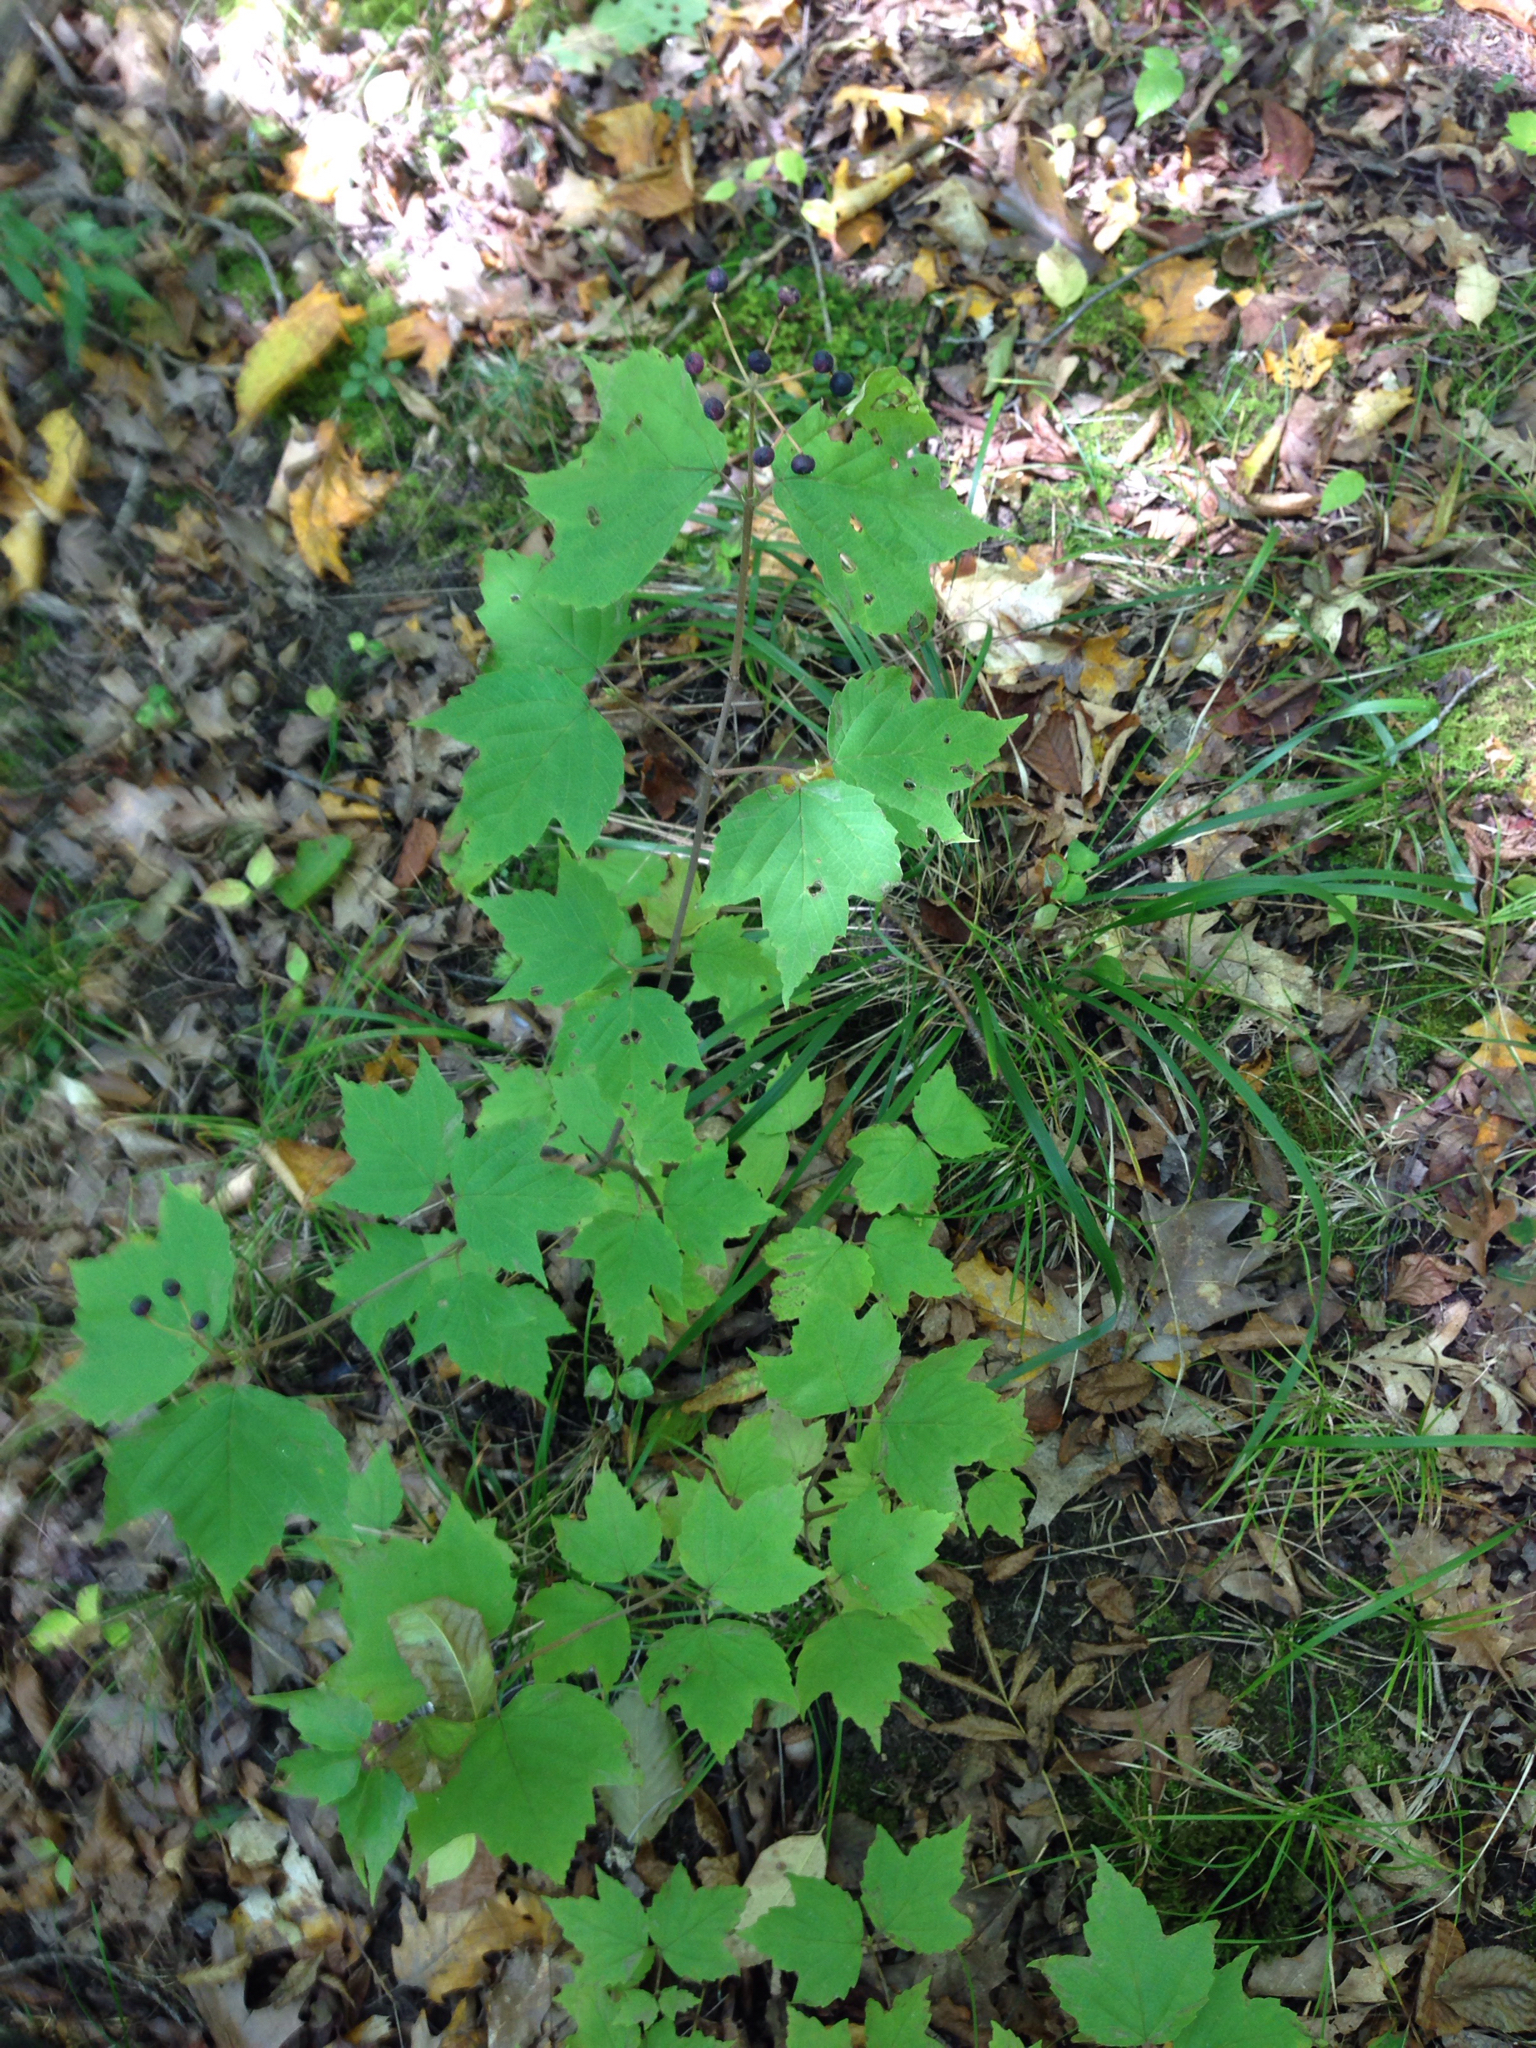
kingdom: Plantae
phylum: Tracheophyta
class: Magnoliopsida
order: Dipsacales
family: Viburnaceae
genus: Viburnum
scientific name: Viburnum acerifolium
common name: Dockmackie
